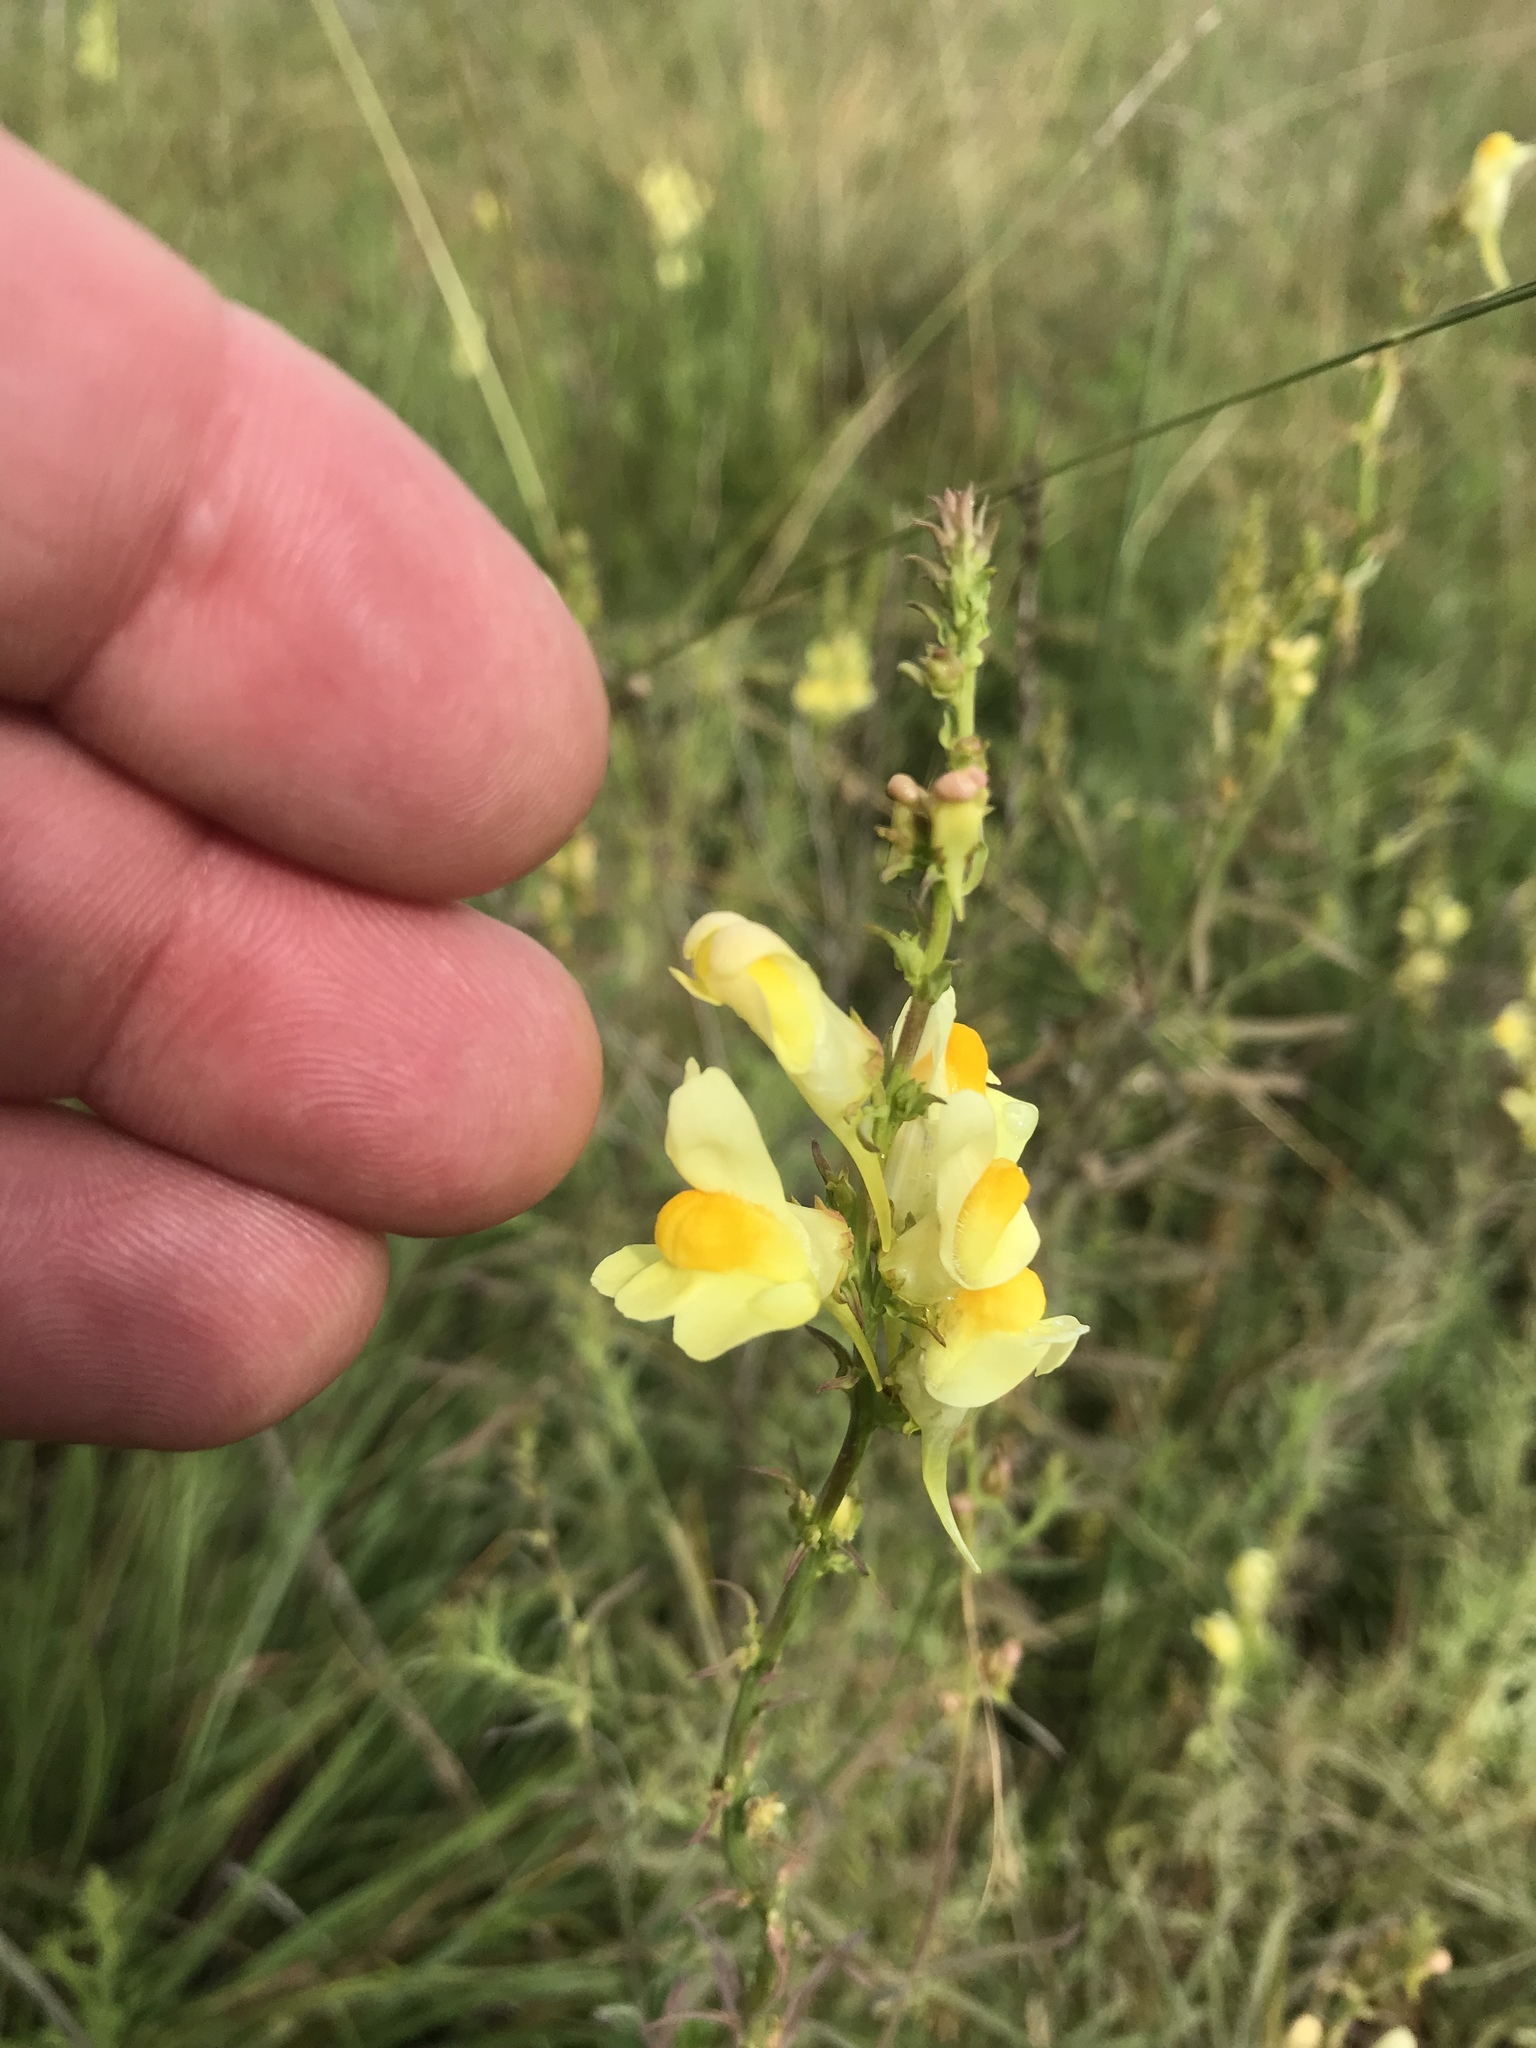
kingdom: Plantae
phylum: Tracheophyta
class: Magnoliopsida
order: Lamiales
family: Plantaginaceae
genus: Linaria
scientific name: Linaria vulgaris
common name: Butter and eggs
